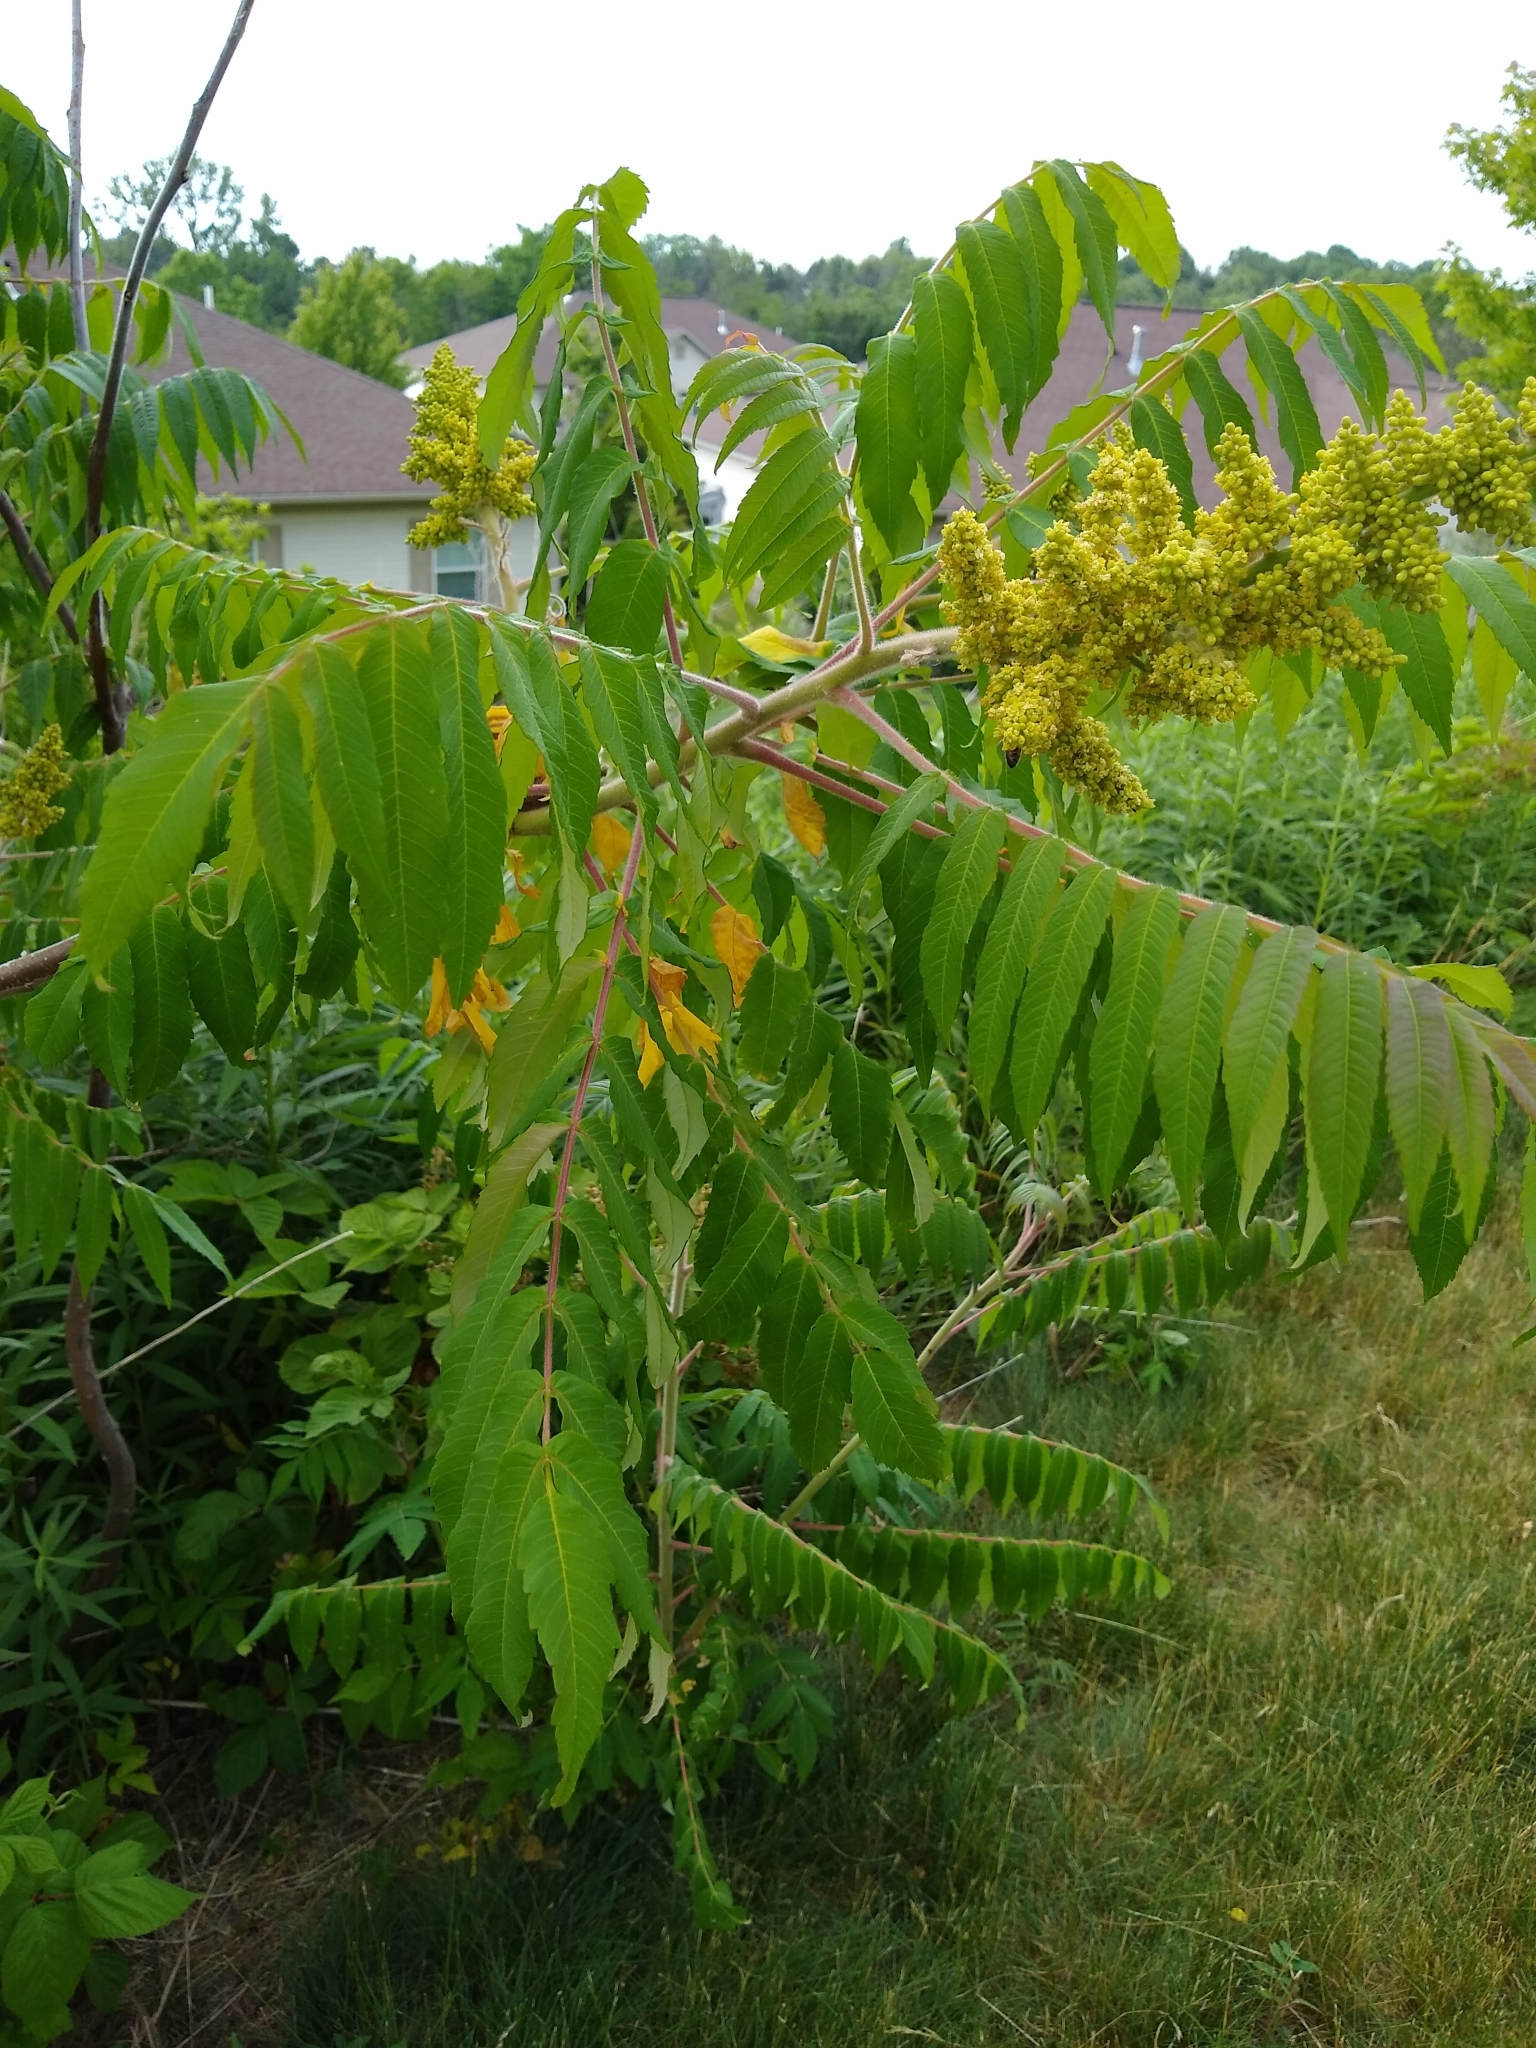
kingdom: Plantae
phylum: Tracheophyta
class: Magnoliopsida
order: Sapindales
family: Anacardiaceae
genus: Rhus
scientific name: Rhus typhina
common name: Staghorn sumac
